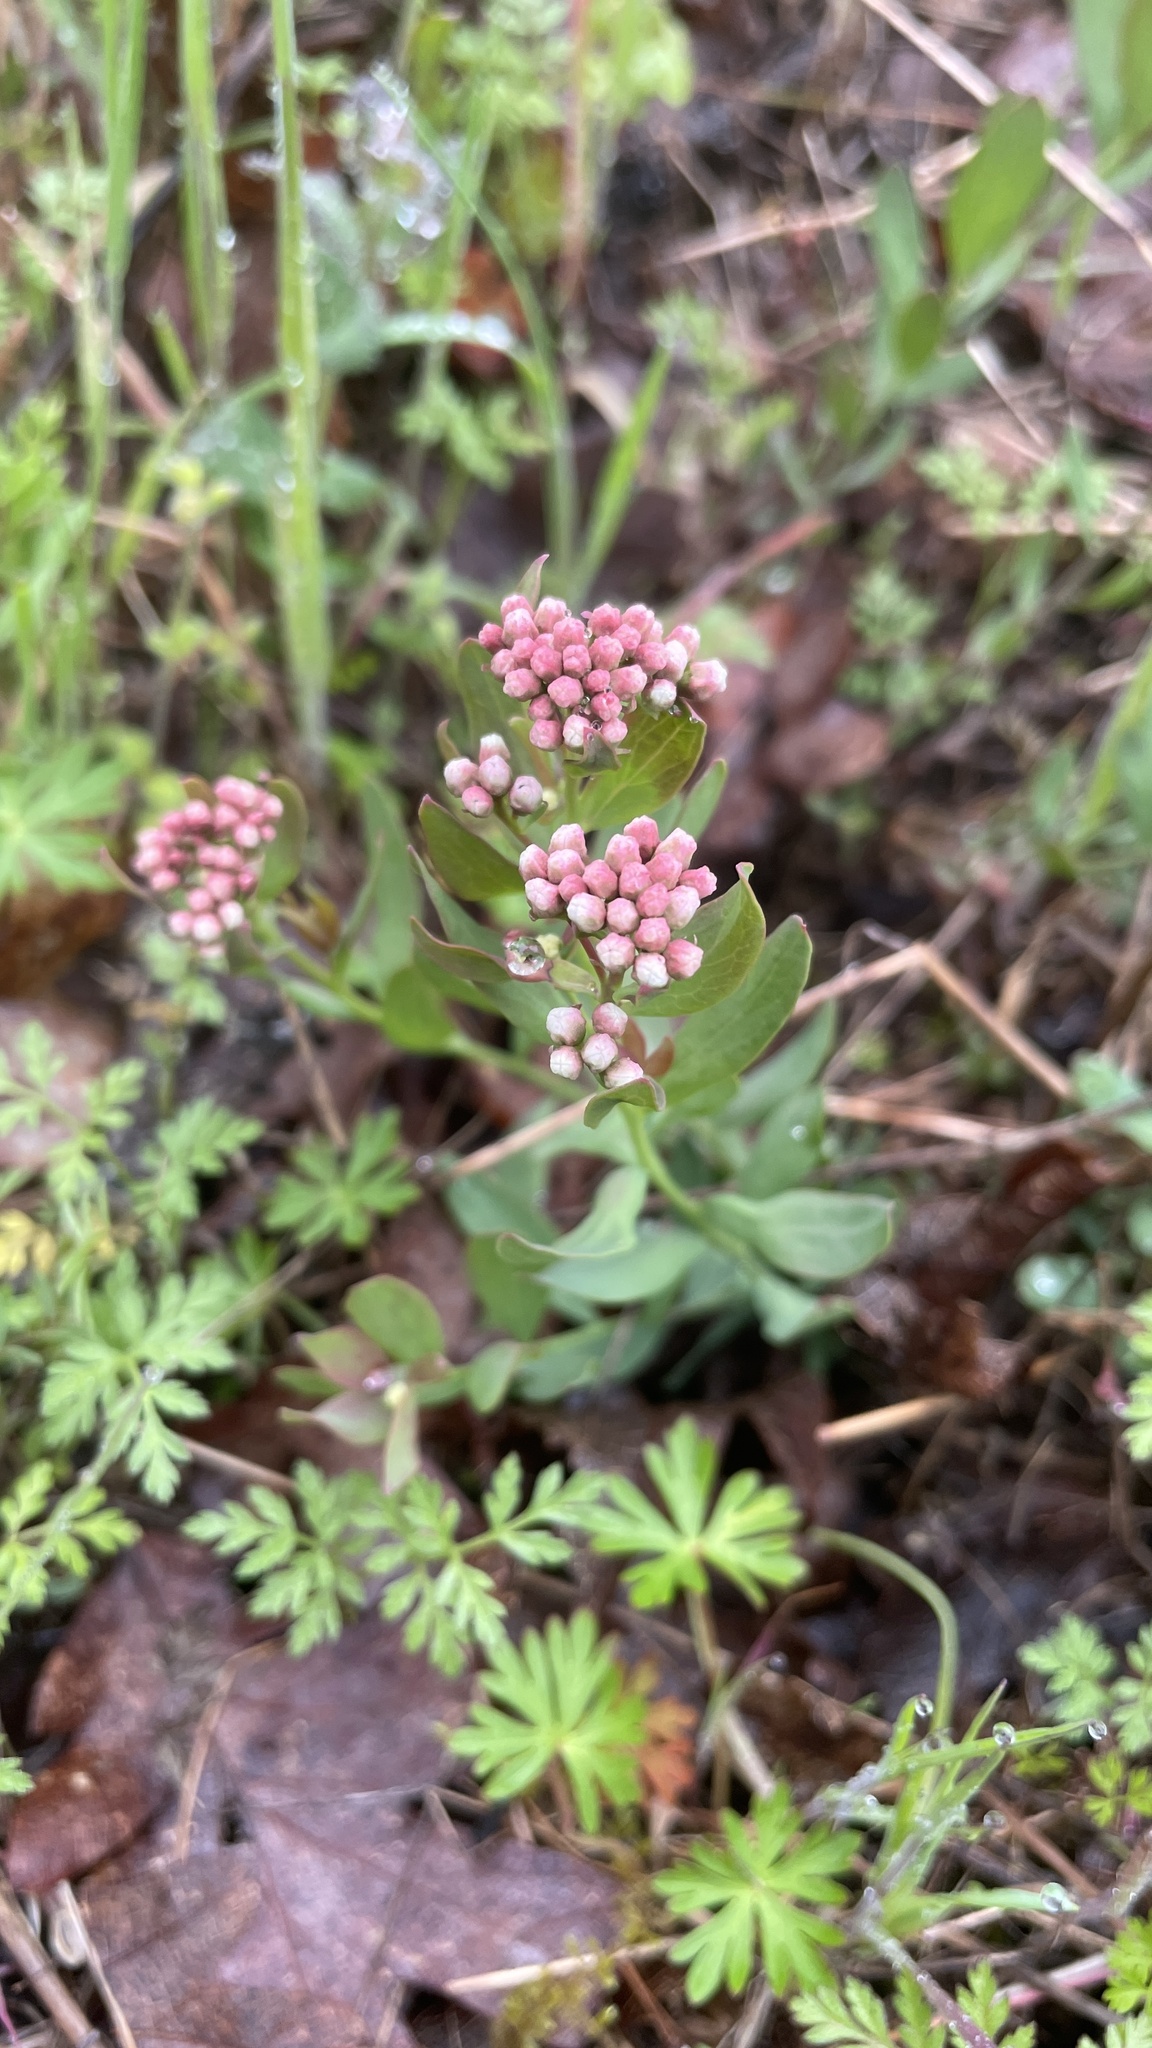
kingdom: Plantae
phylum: Tracheophyta
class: Magnoliopsida
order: Santalales
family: Comandraceae
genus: Comandra
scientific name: Comandra umbellata
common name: Bastard toadflax
